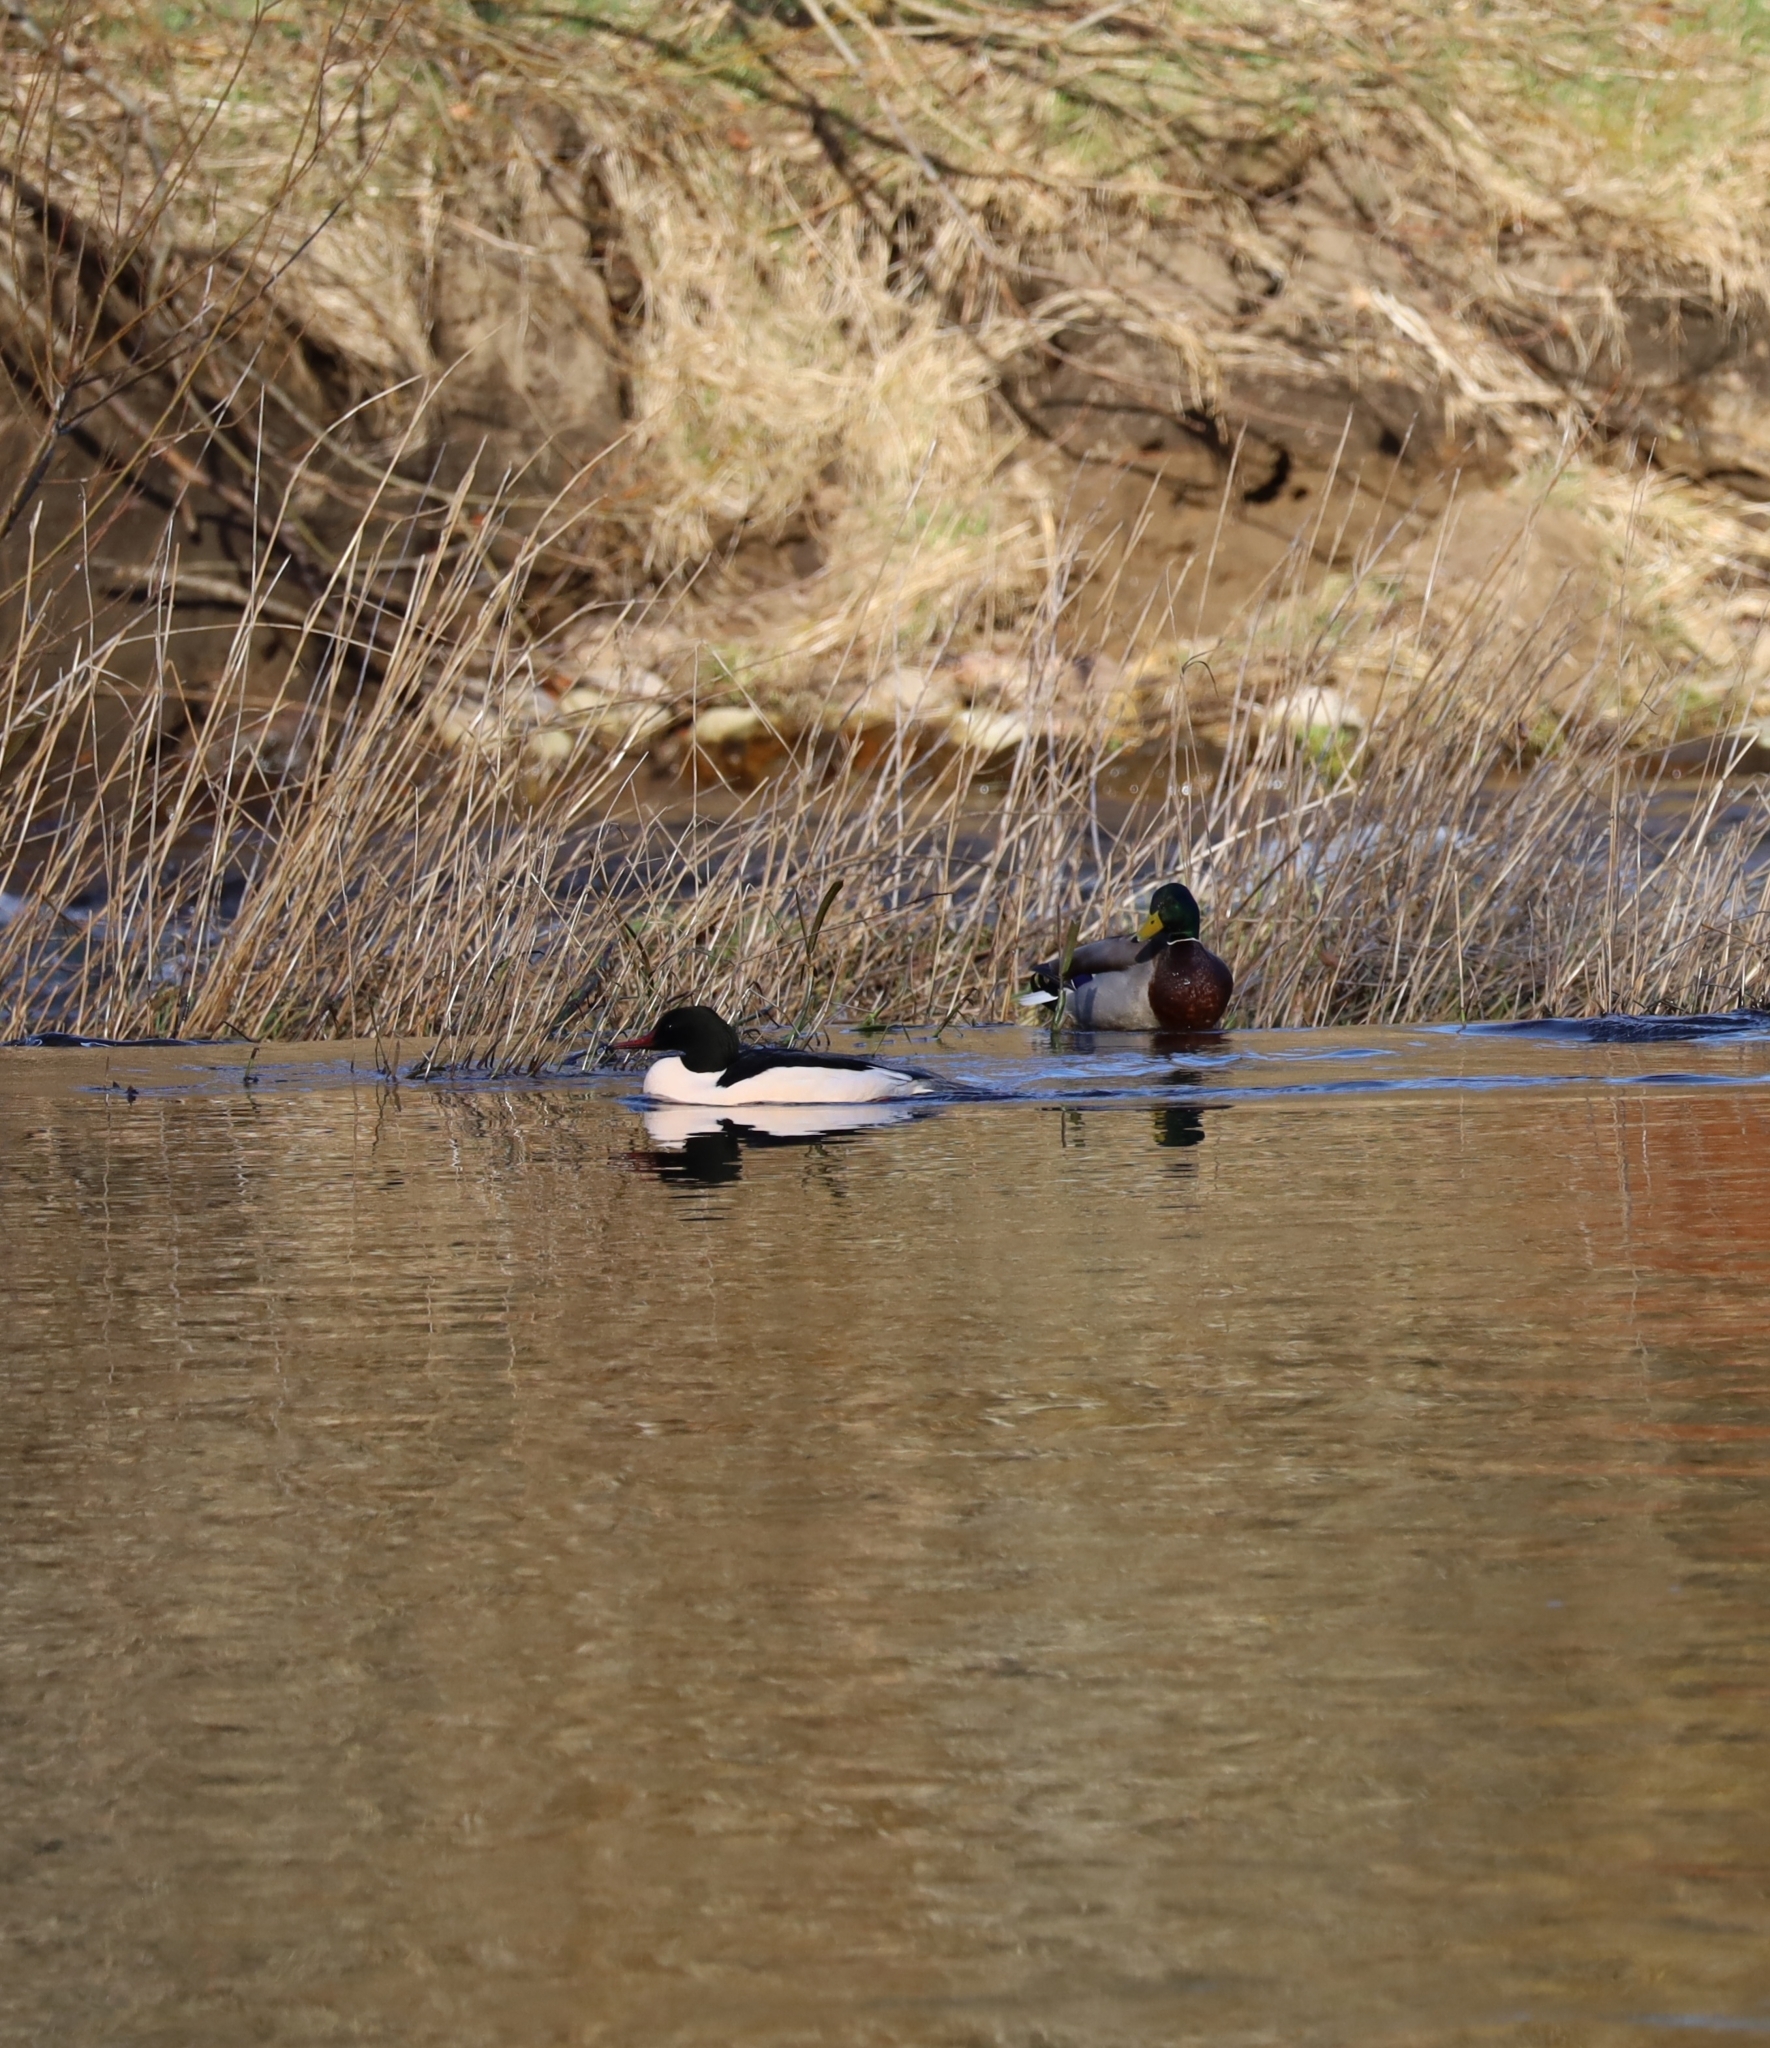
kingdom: Animalia
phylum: Chordata
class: Aves
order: Anseriformes
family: Anatidae
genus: Mergus
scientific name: Mergus merganser
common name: Common merganser
